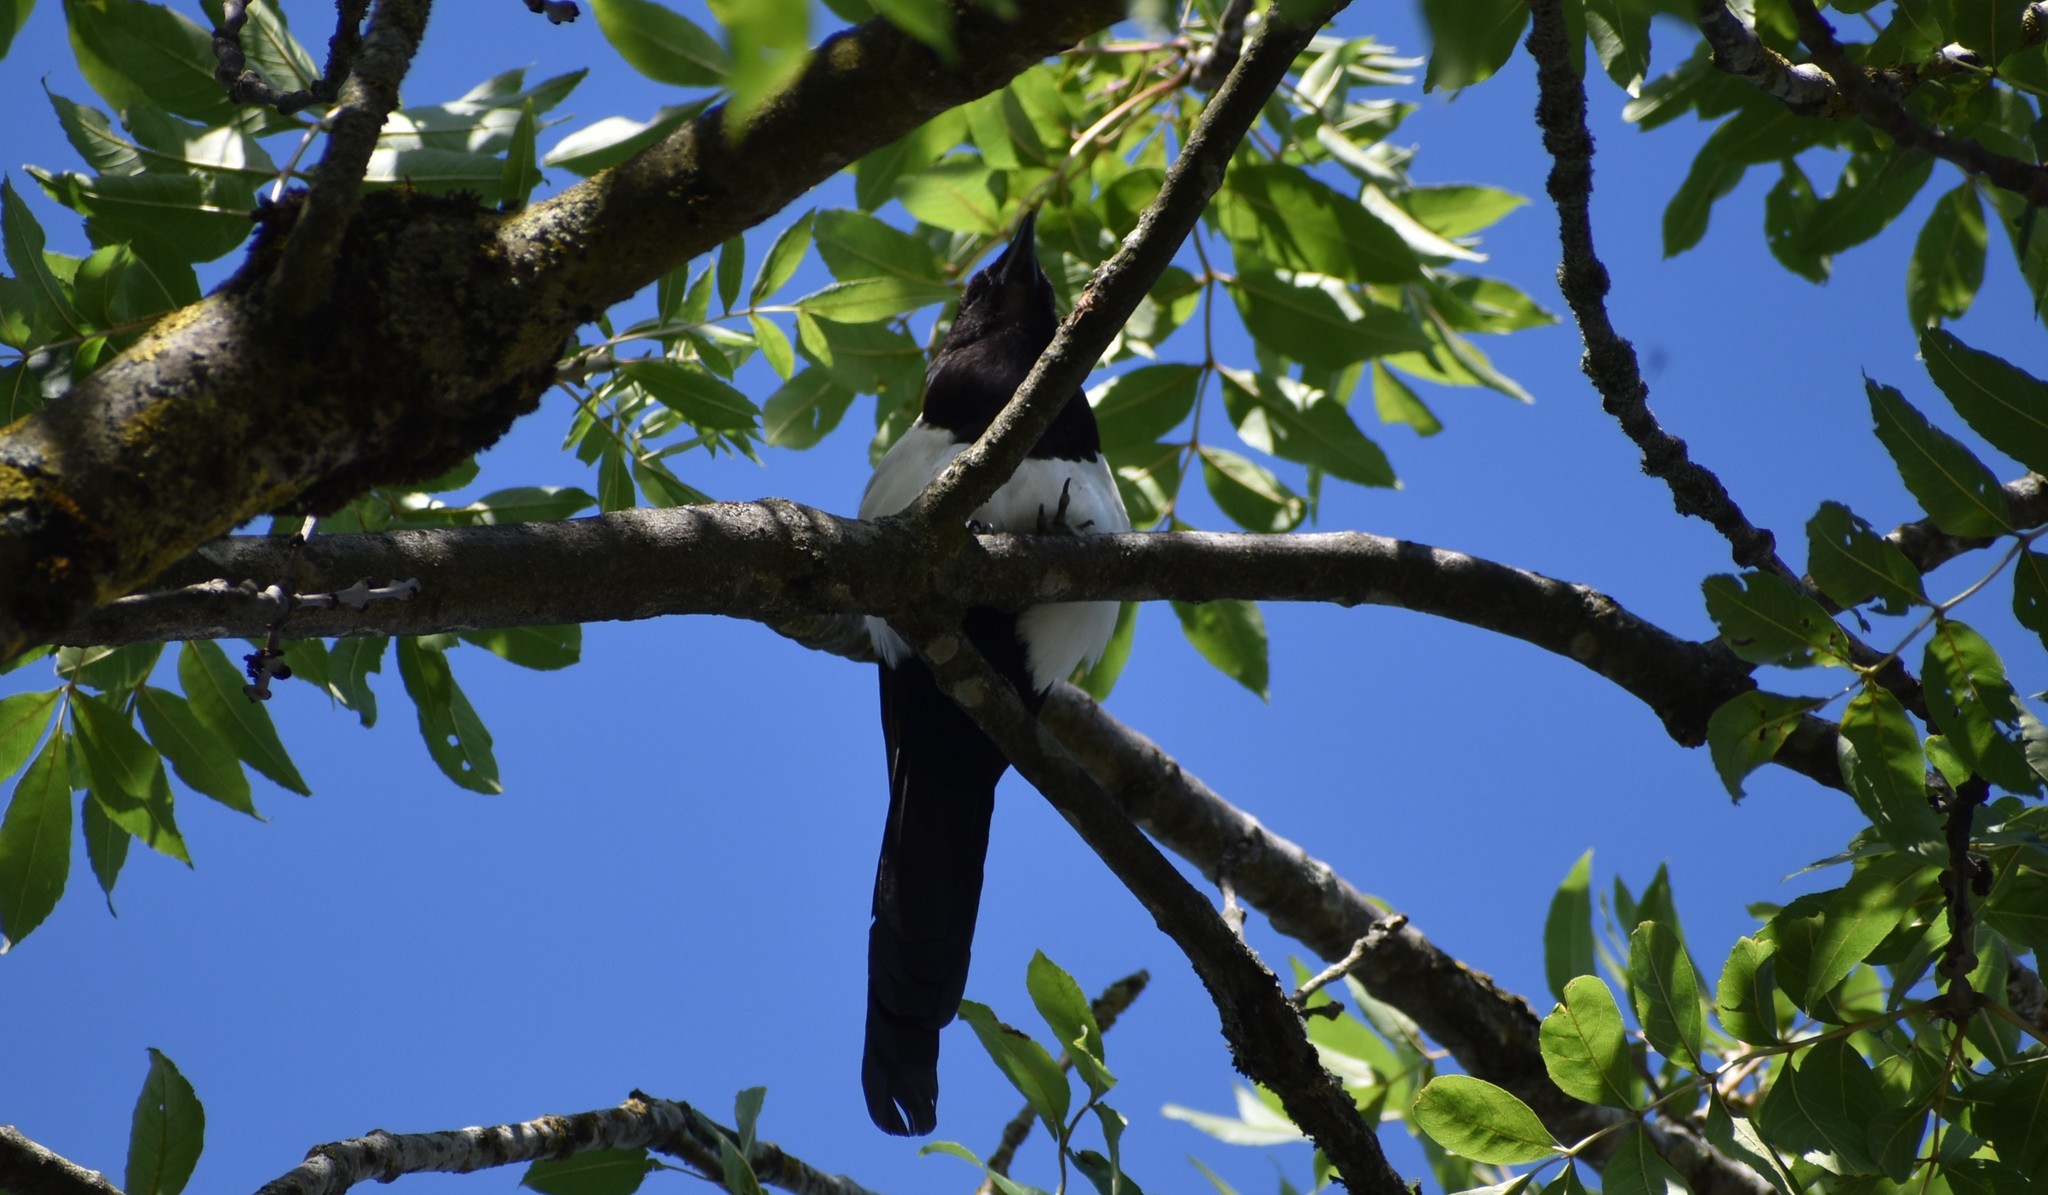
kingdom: Animalia
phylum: Chordata
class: Aves
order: Passeriformes
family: Corvidae
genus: Pica
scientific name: Pica pica
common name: Eurasian magpie
